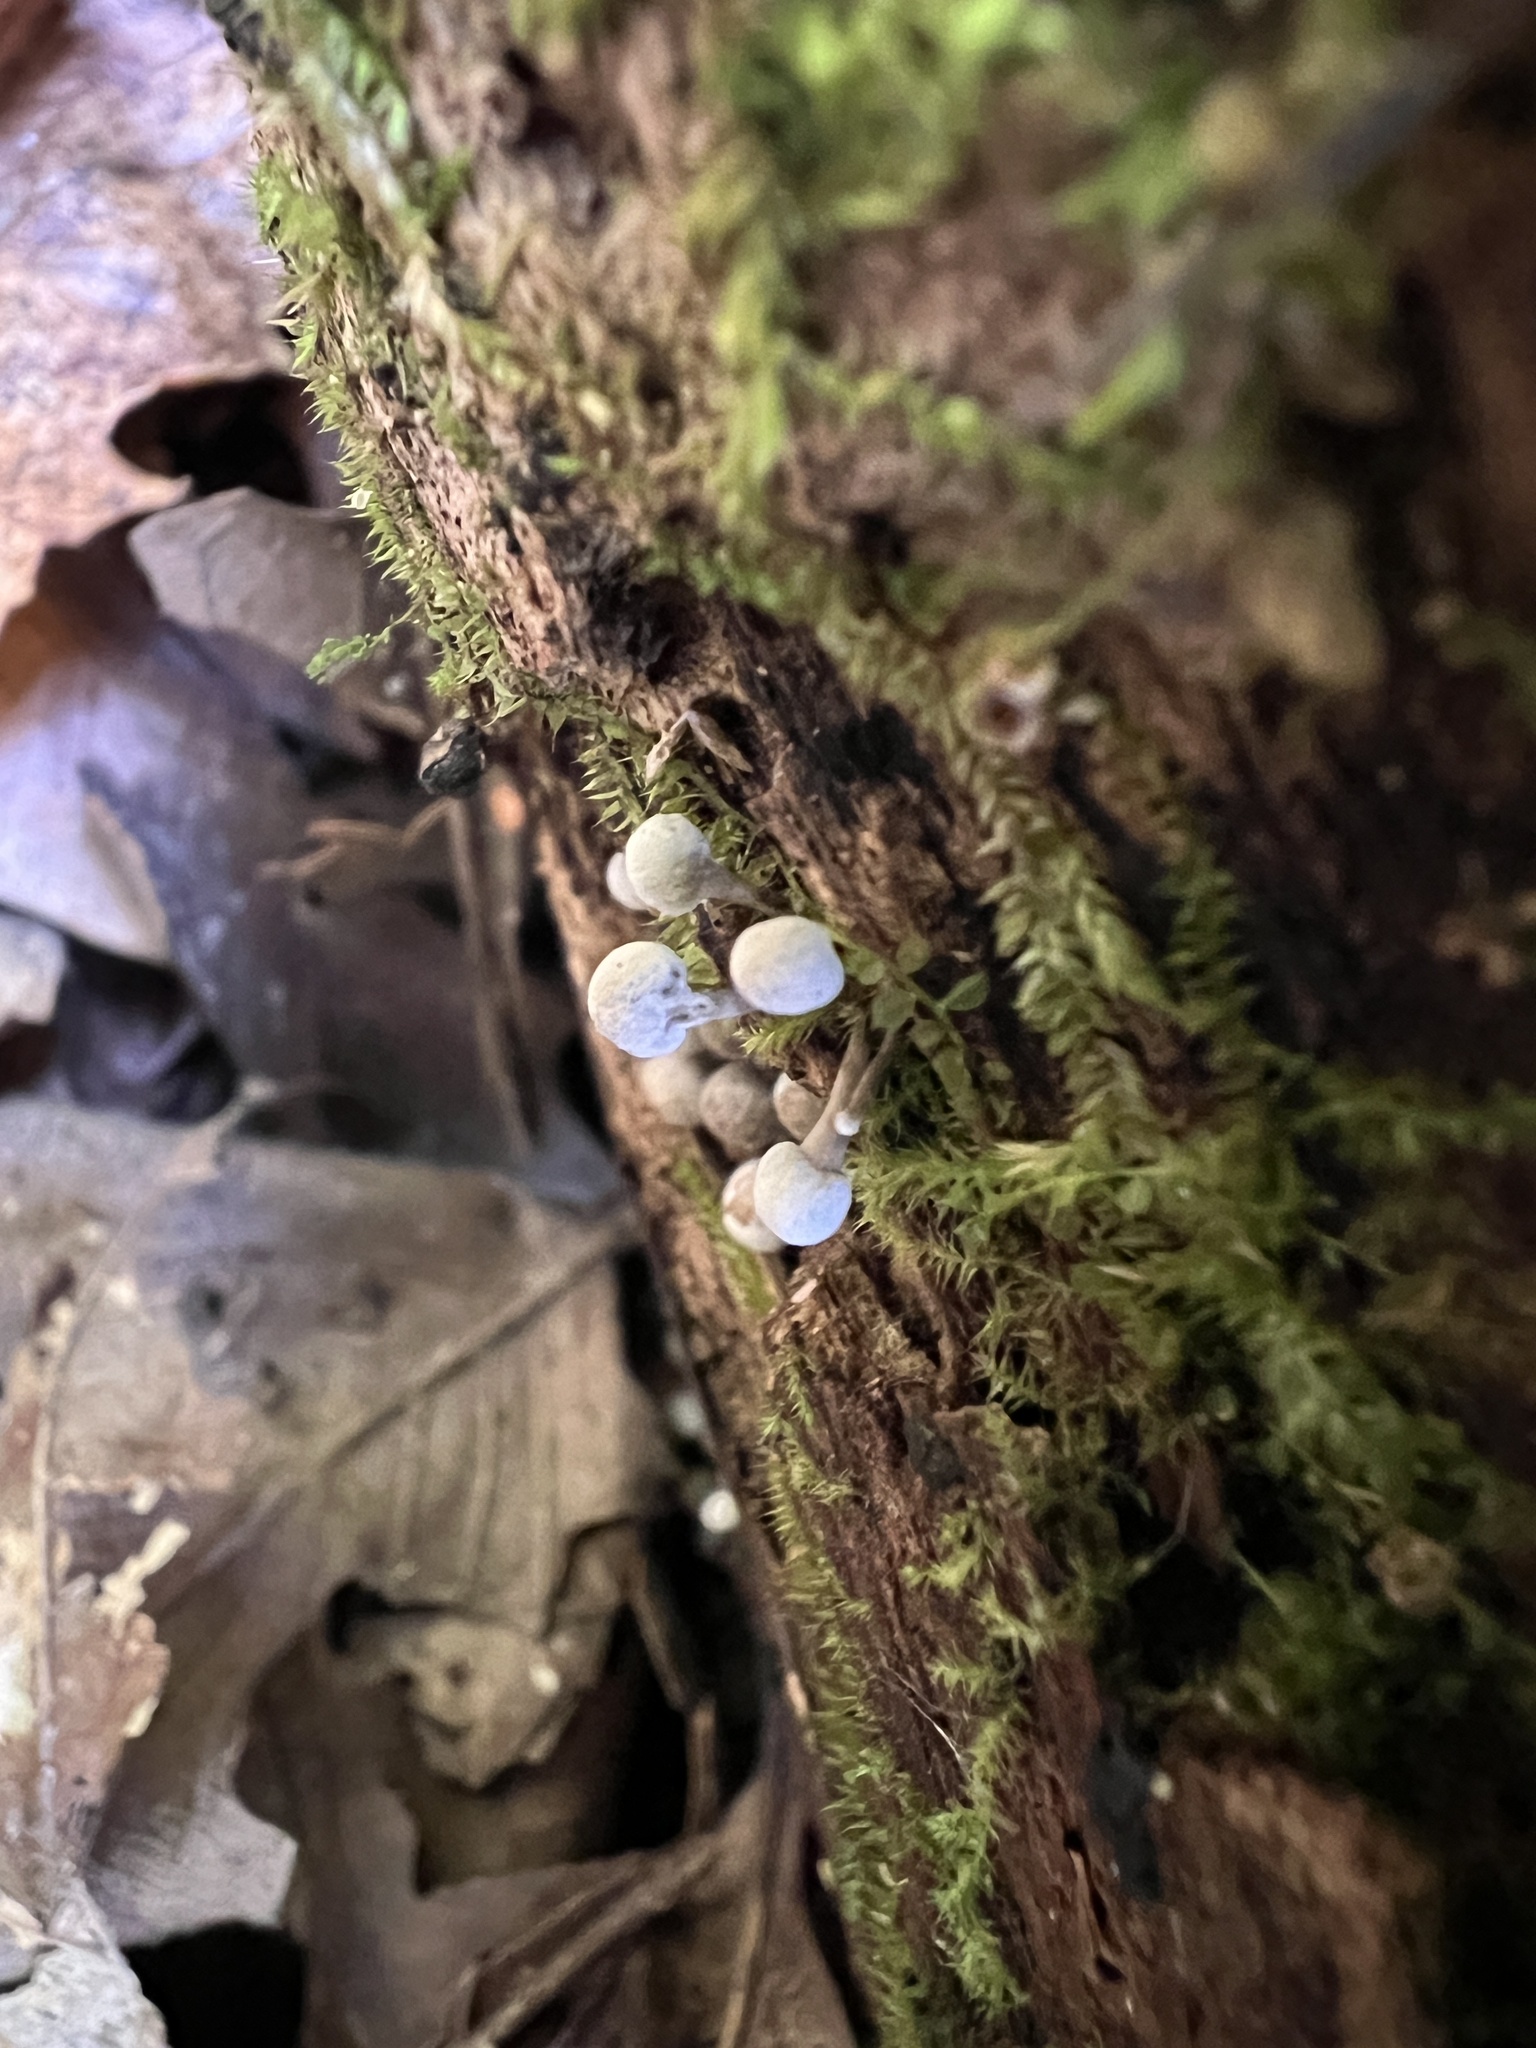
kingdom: Fungi
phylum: Basidiomycota
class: Atractiellomycetes
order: Atractiellales
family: Phleogenaceae
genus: Phleogena
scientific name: Phleogena faginea
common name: Fenugreek stalkball
